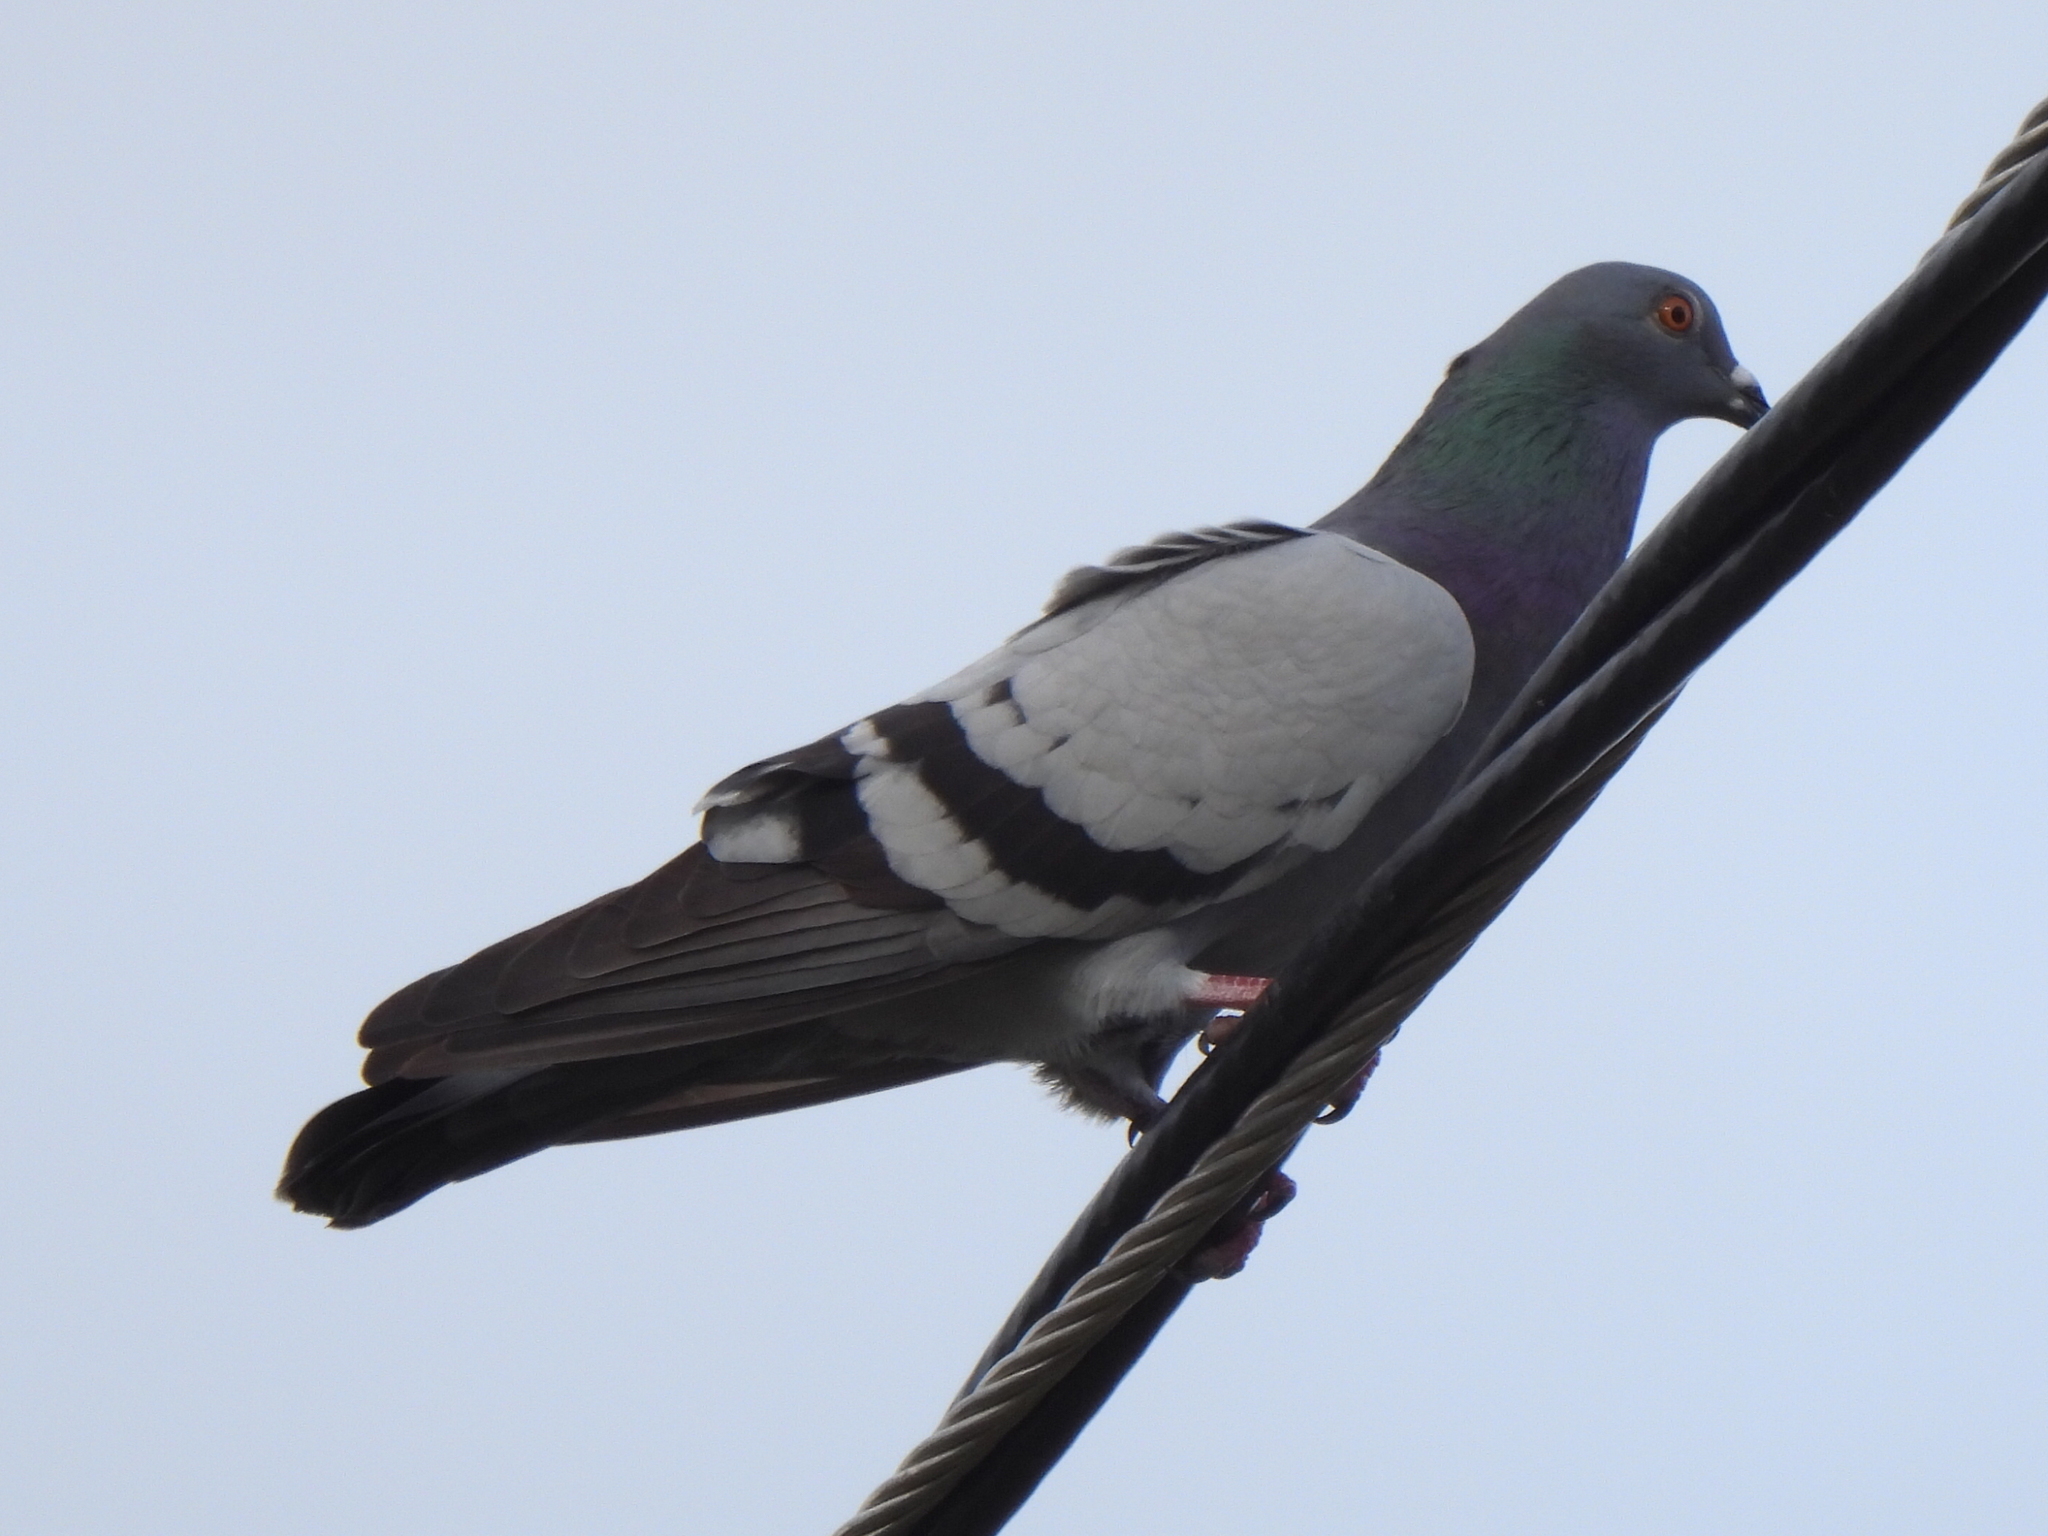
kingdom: Animalia
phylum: Chordata
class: Aves
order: Columbiformes
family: Columbidae
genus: Columba
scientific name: Columba livia
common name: Rock pigeon
